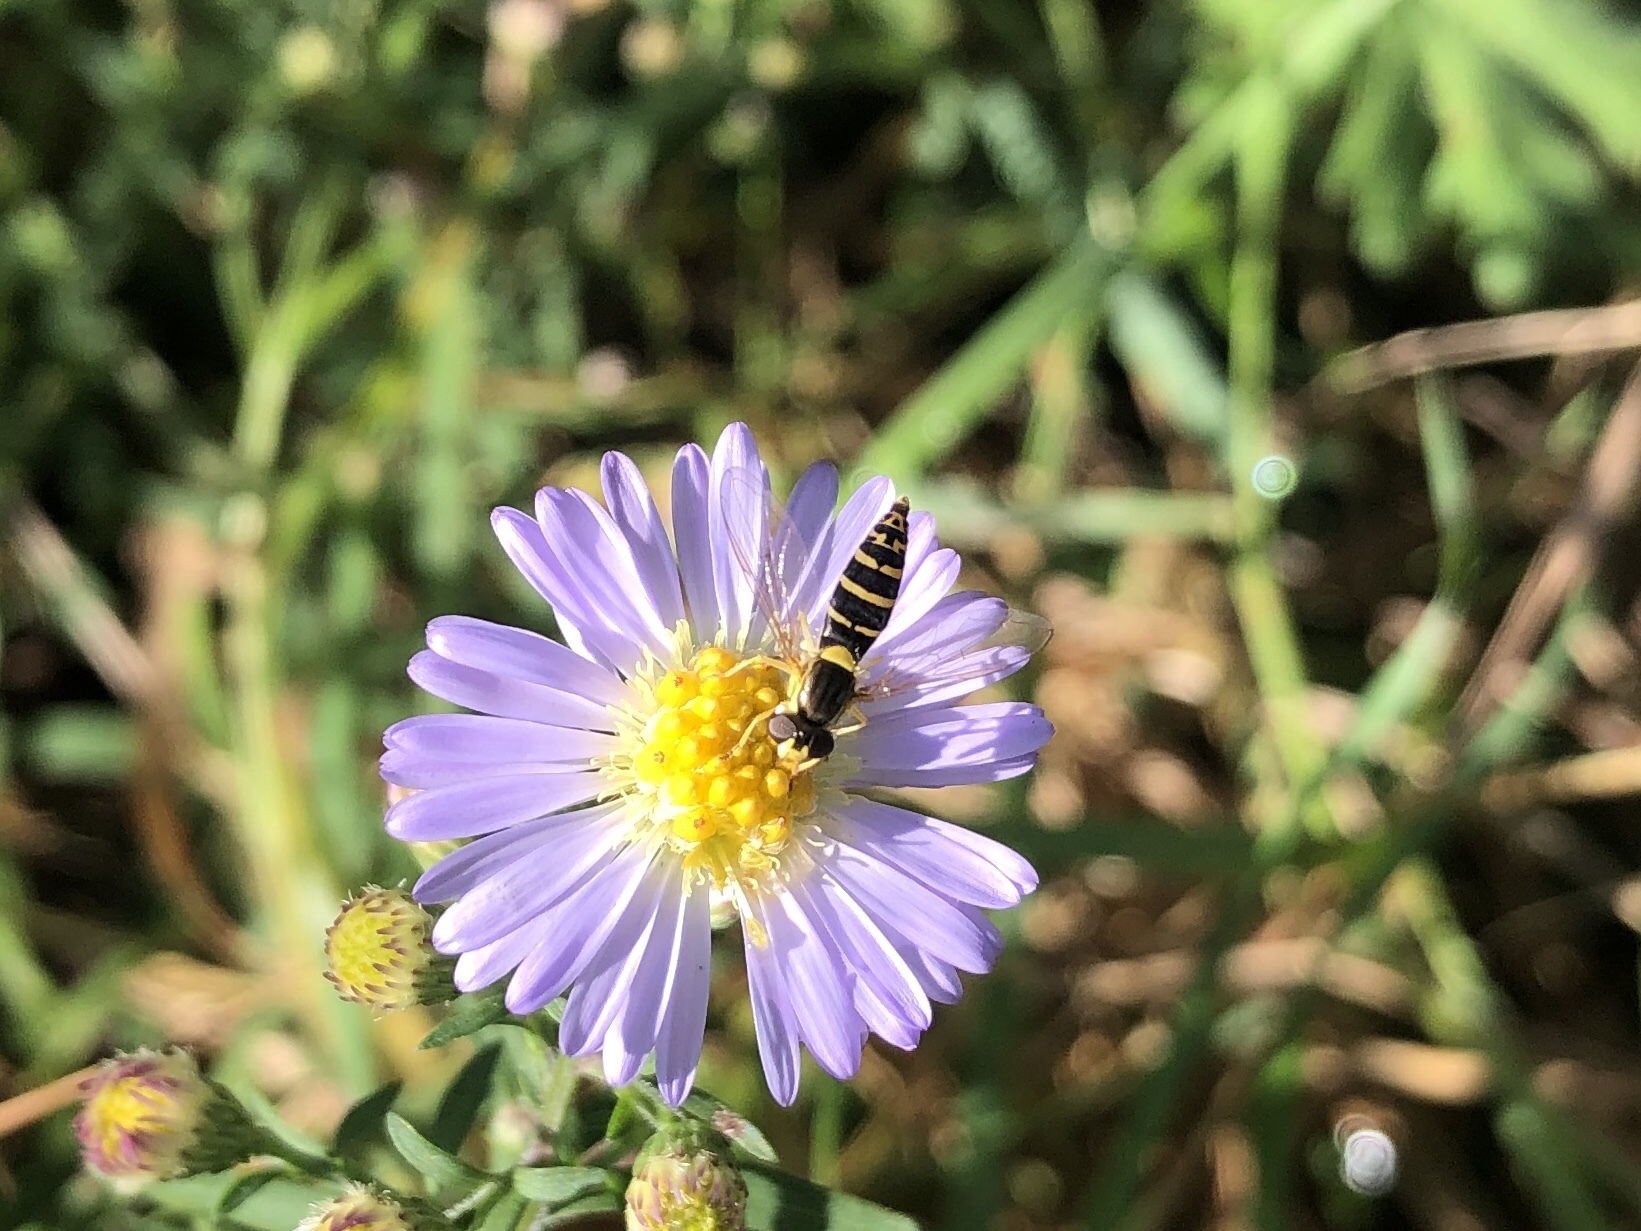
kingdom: Animalia
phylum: Arthropoda
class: Insecta
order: Diptera
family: Syrphidae
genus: Sphaerophoria
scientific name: Sphaerophoria
